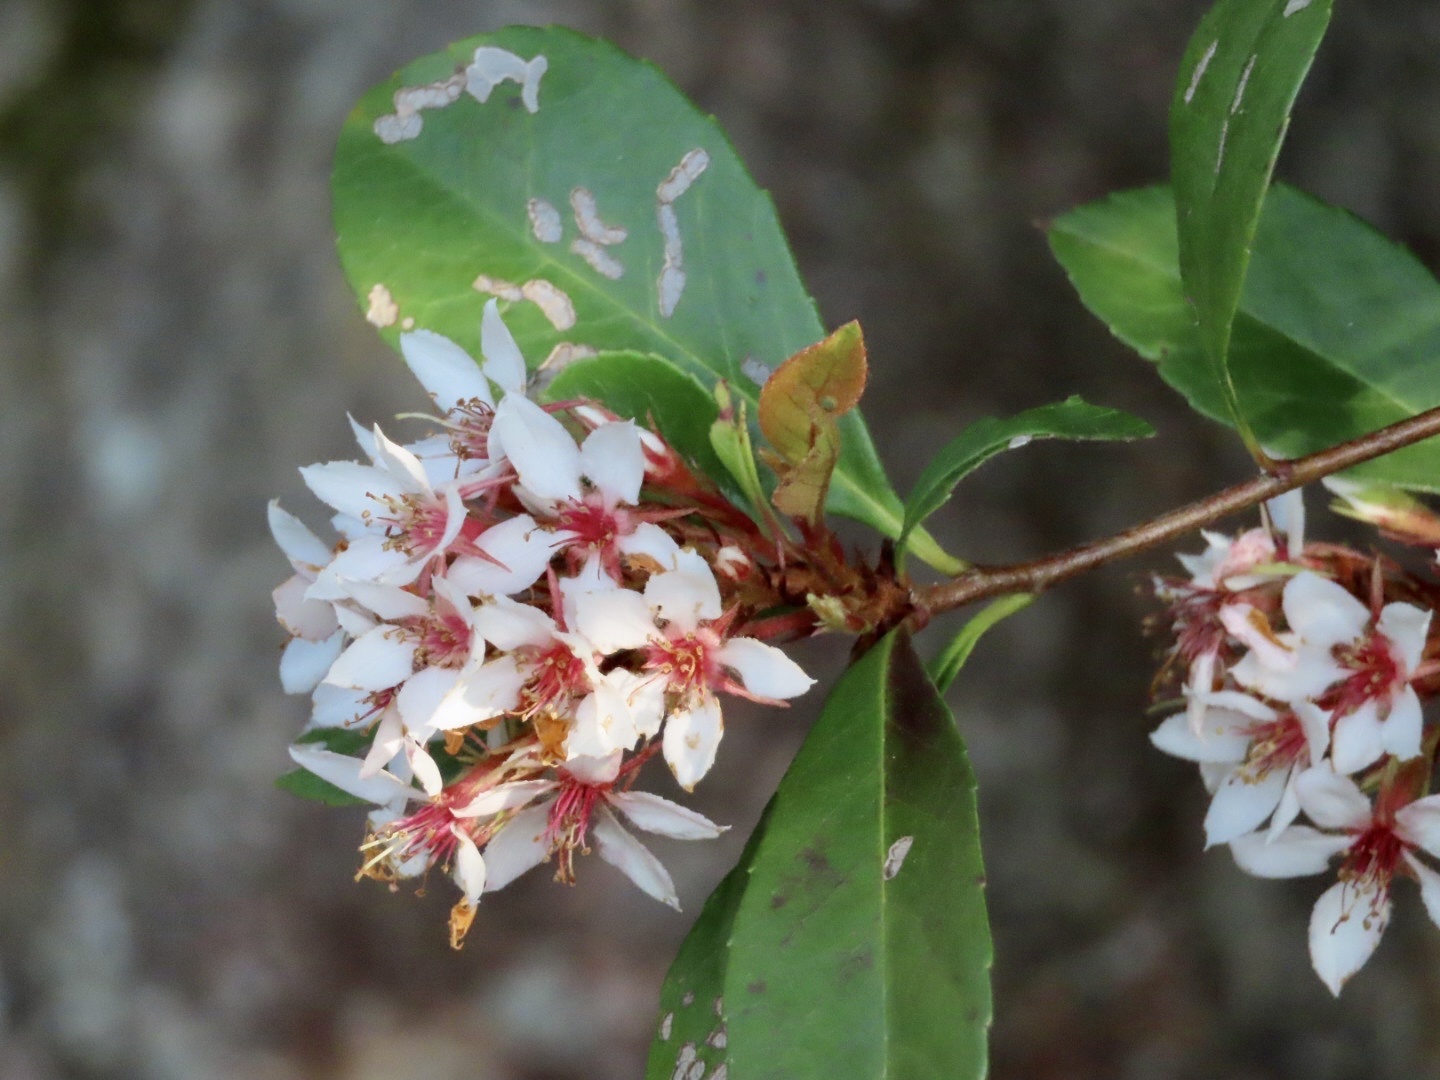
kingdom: Plantae
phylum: Tracheophyta
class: Magnoliopsida
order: Rosales
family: Rosaceae
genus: Rhaphiolepis
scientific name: Rhaphiolepis indica
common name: India-hawthorn
